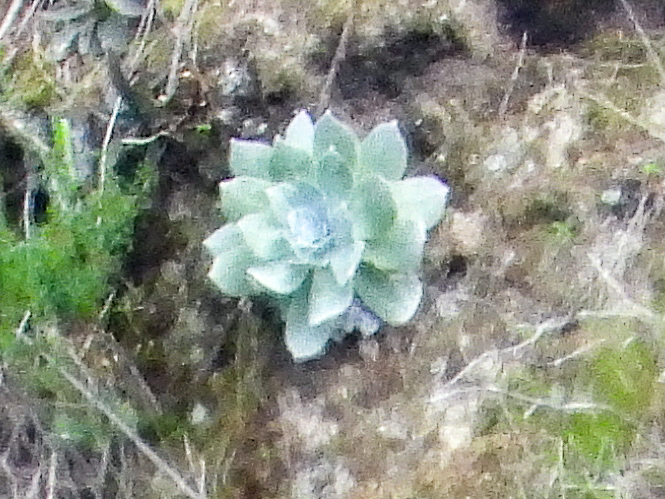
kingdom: Plantae
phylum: Tracheophyta
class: Magnoliopsida
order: Saxifragales
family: Crassulaceae
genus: Dudleya
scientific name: Dudleya pulverulenta
